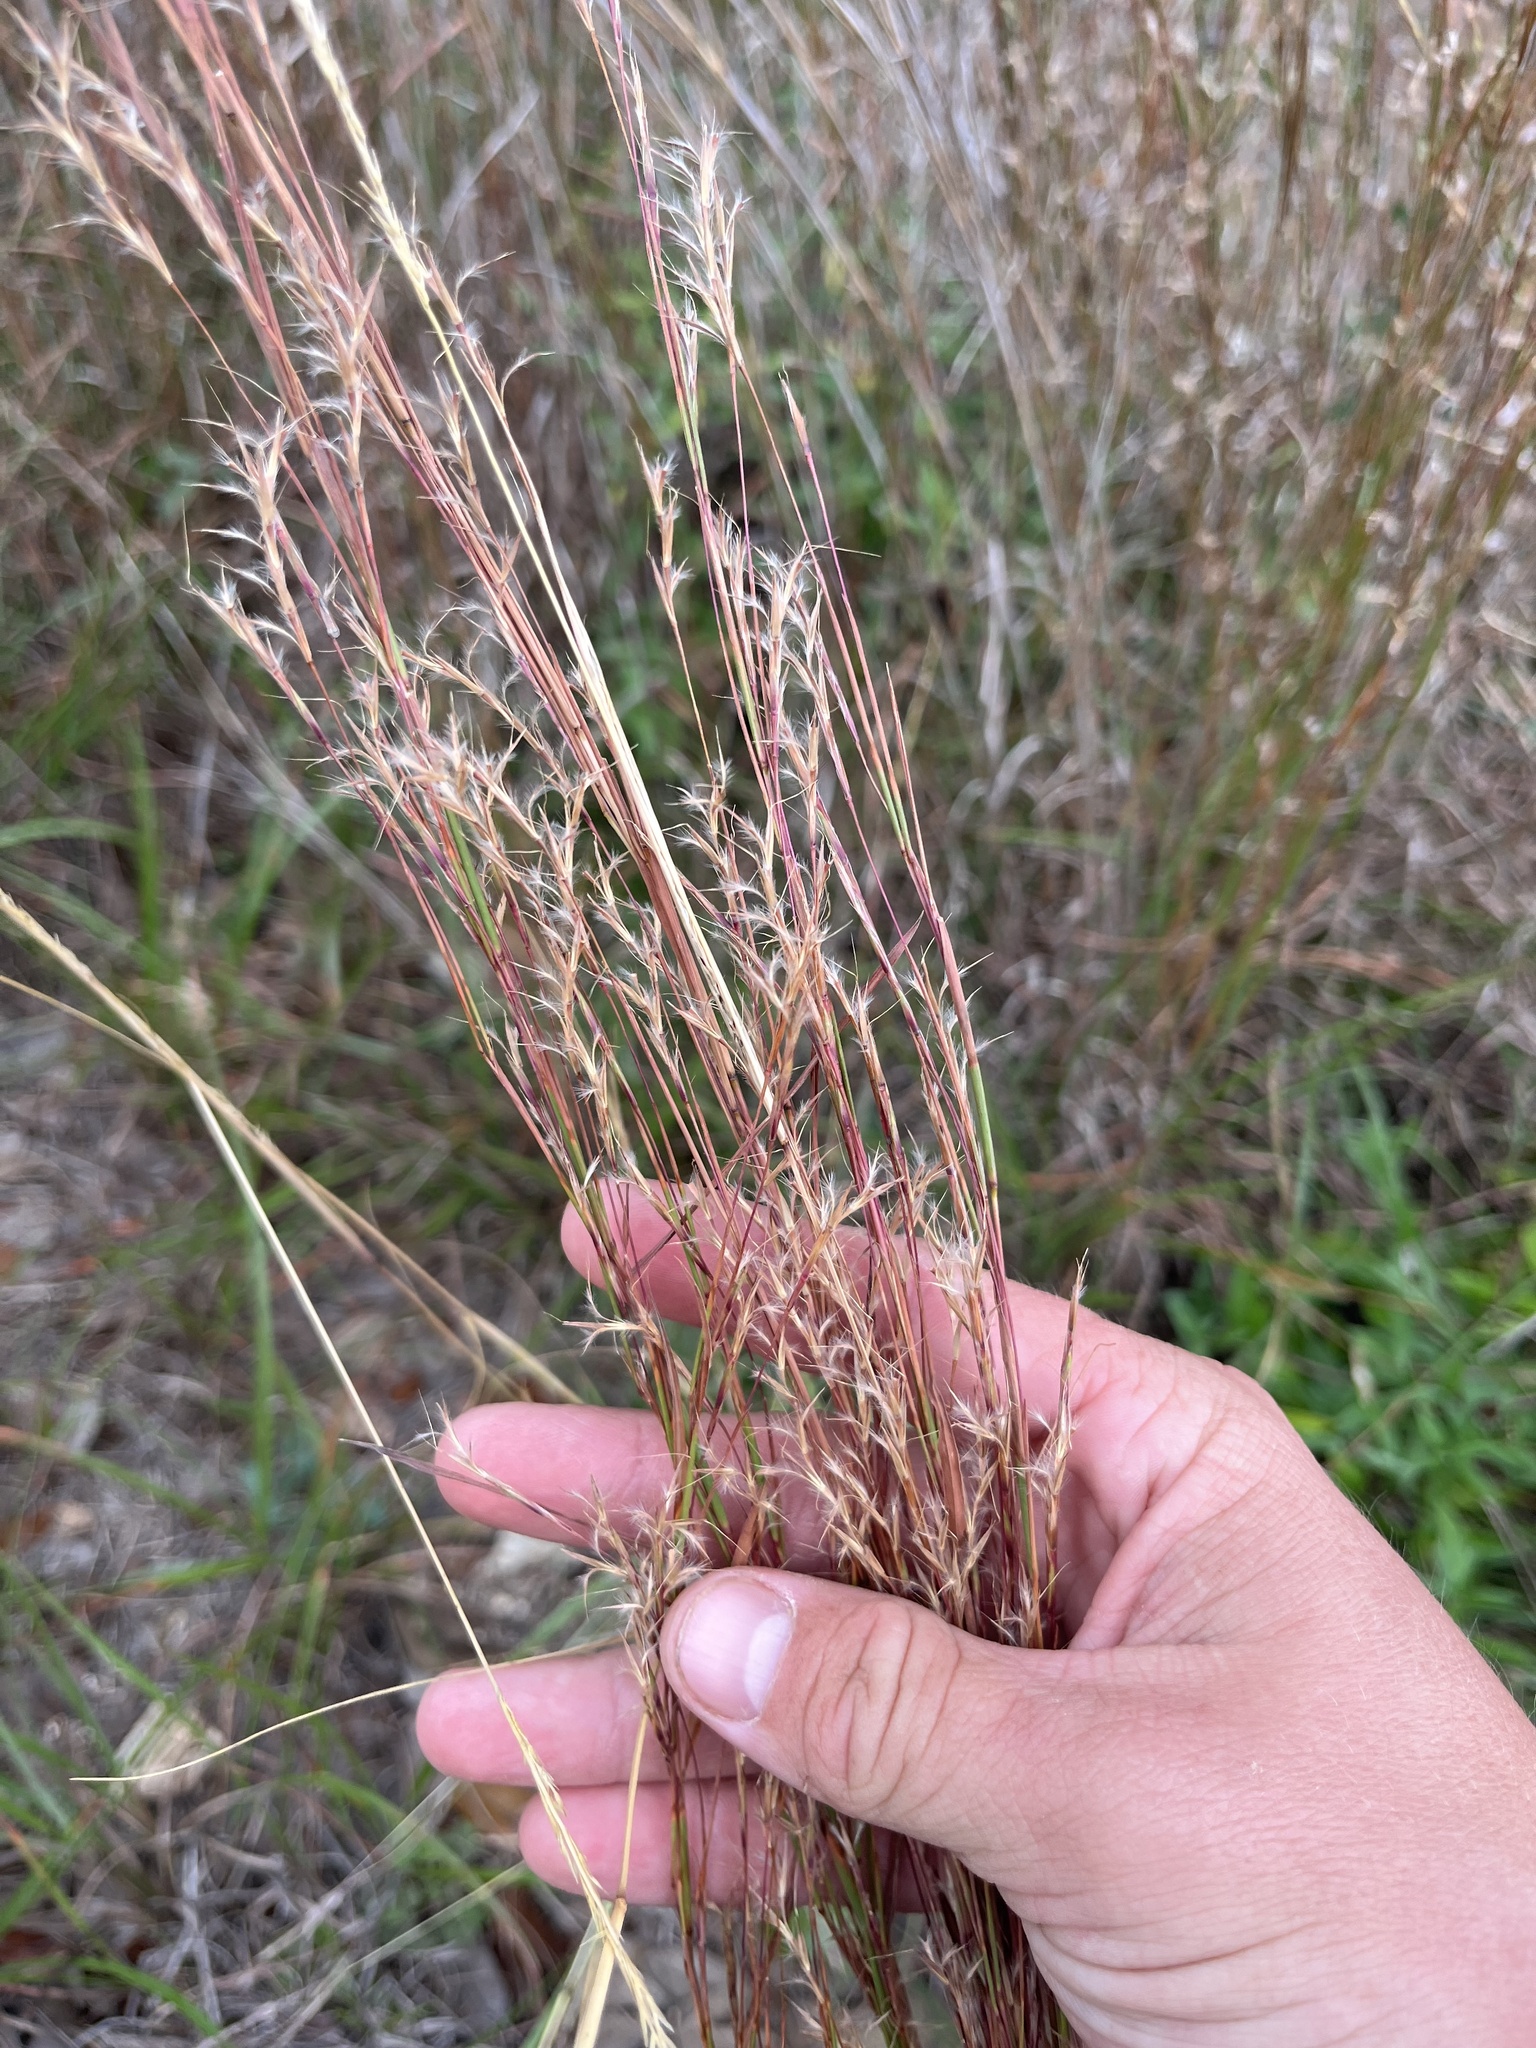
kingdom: Plantae
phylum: Tracheophyta
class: Liliopsida
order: Poales
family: Poaceae
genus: Schizachyrium
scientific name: Schizachyrium scoparium
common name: Little bluestem
